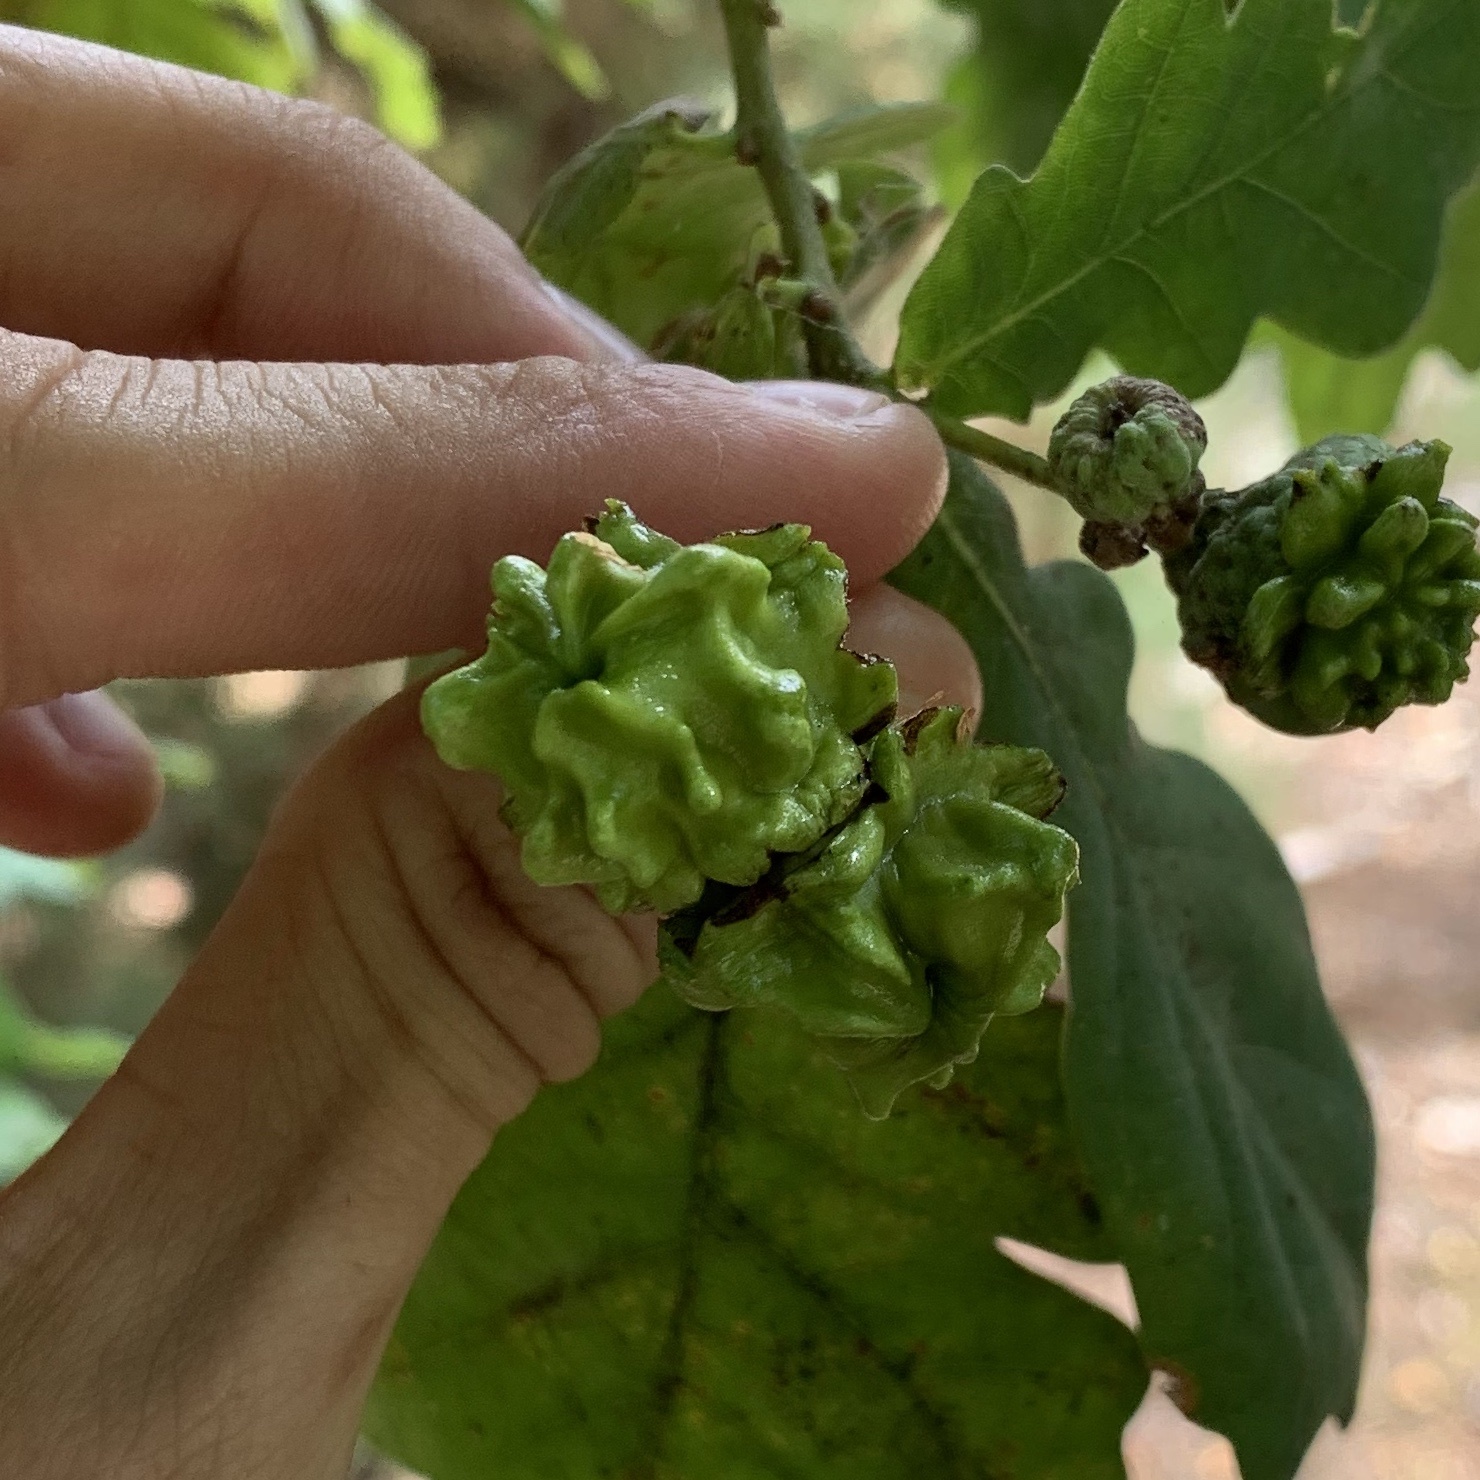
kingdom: Animalia
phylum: Arthropoda
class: Insecta
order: Hymenoptera
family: Cynipidae
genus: Andricus
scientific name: Andricus quercuscalicis
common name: Knopper gall
